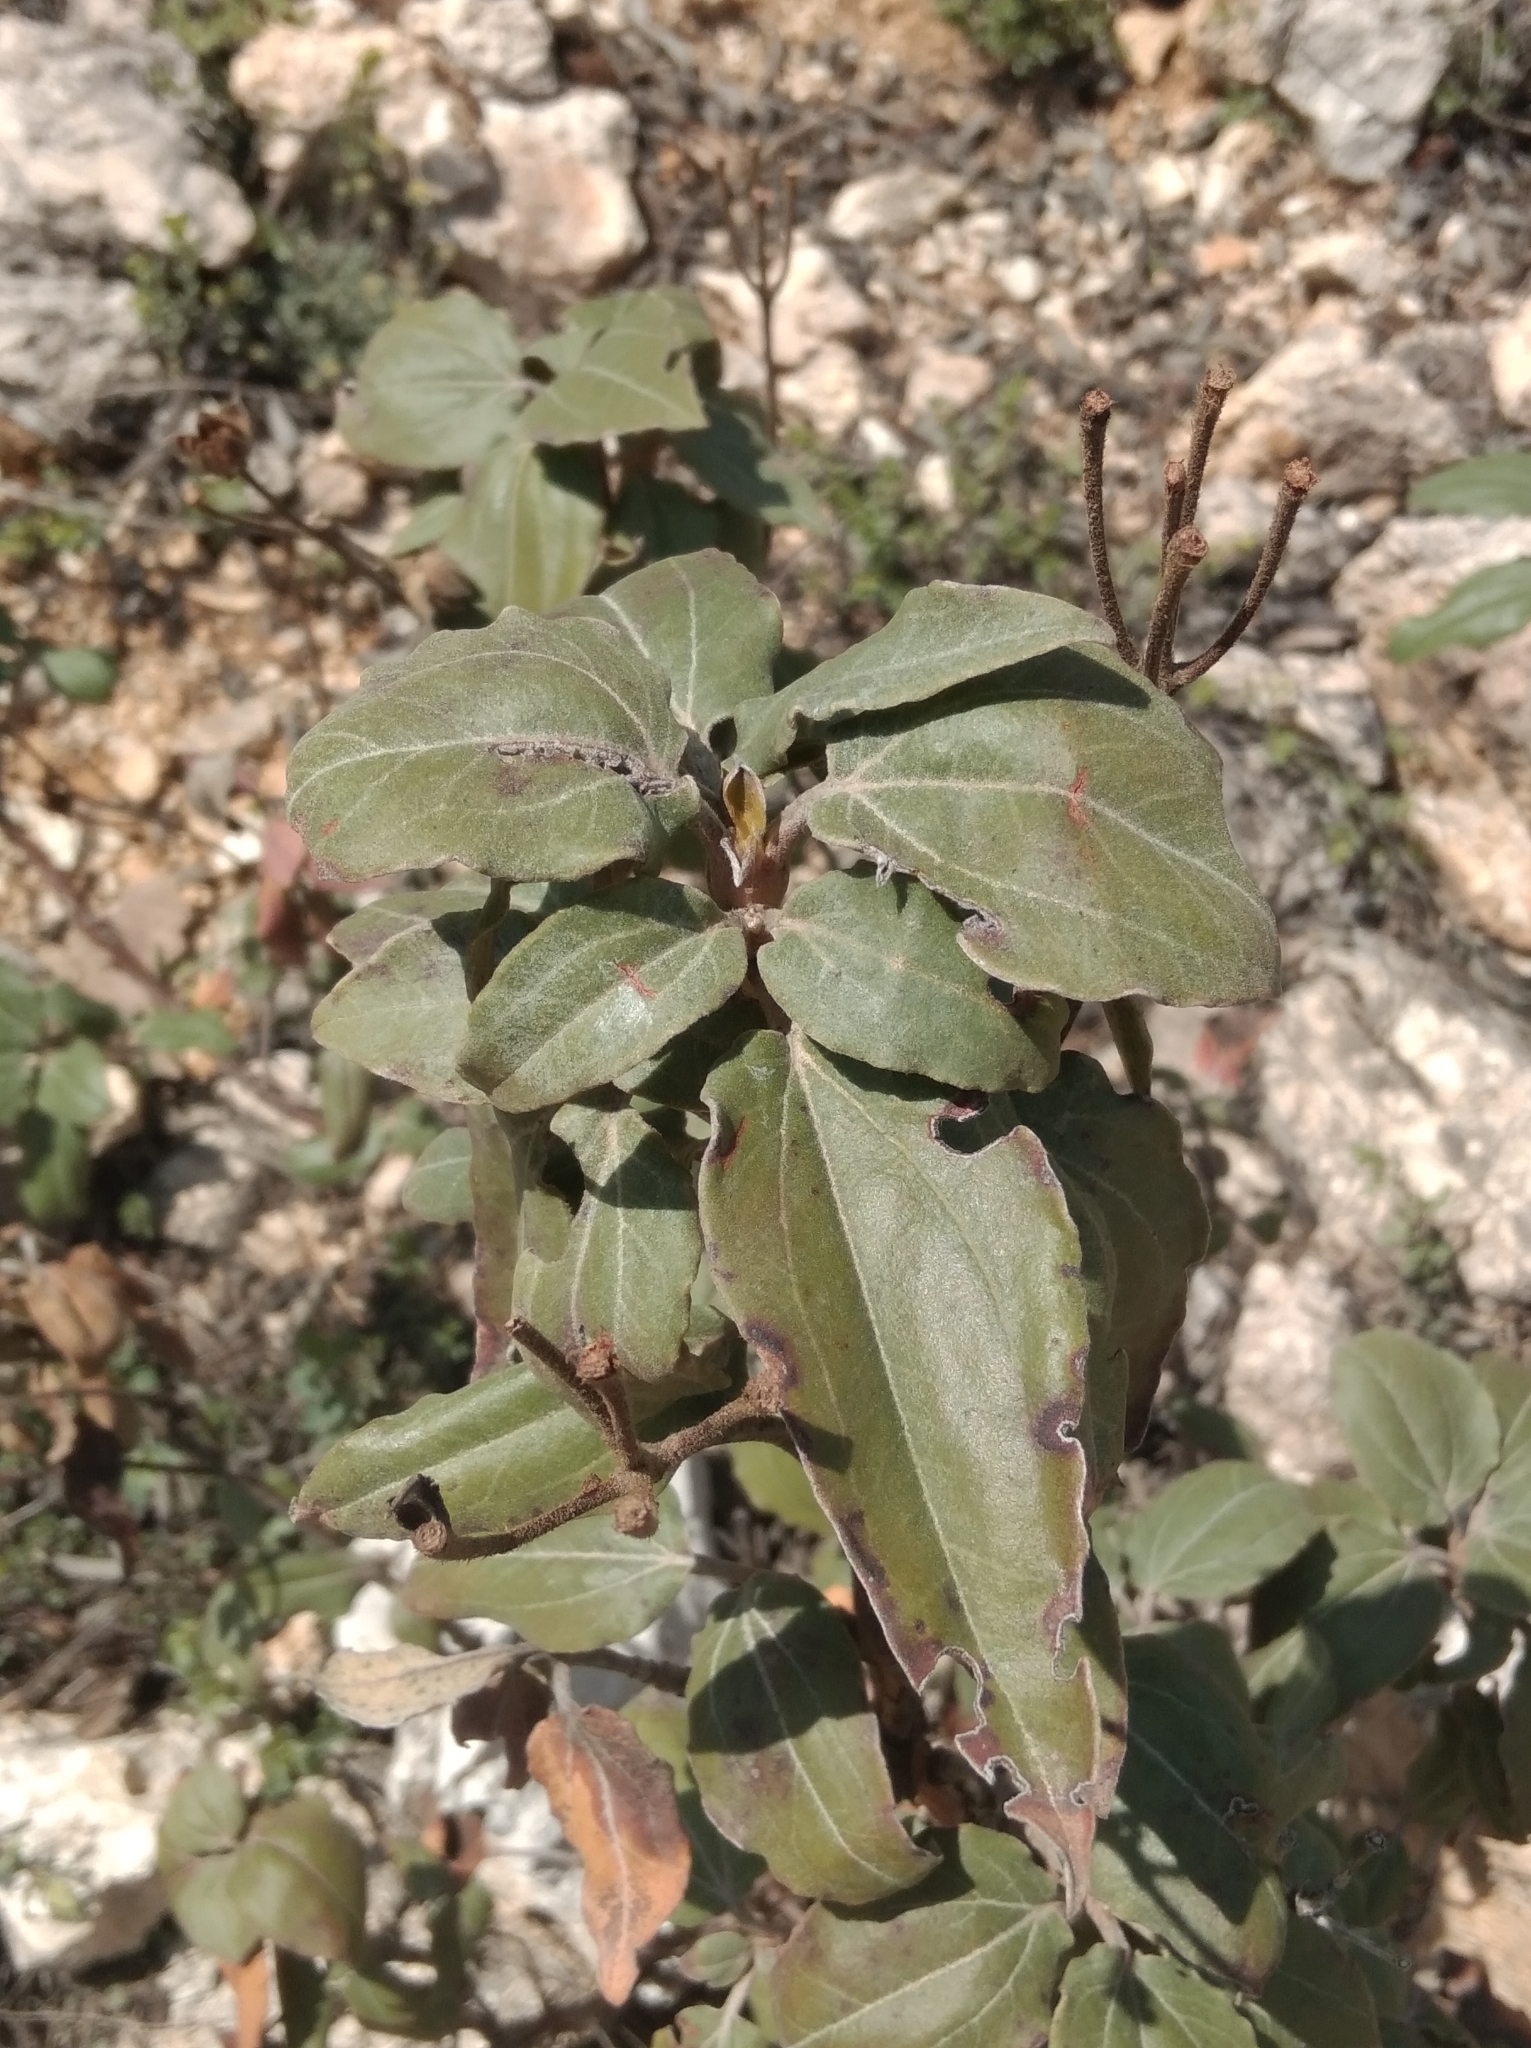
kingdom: Plantae
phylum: Tracheophyta
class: Magnoliopsida
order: Malvales
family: Cistaceae
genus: Cistus
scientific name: Cistus laurifolius
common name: Laurel-leaved cistus
